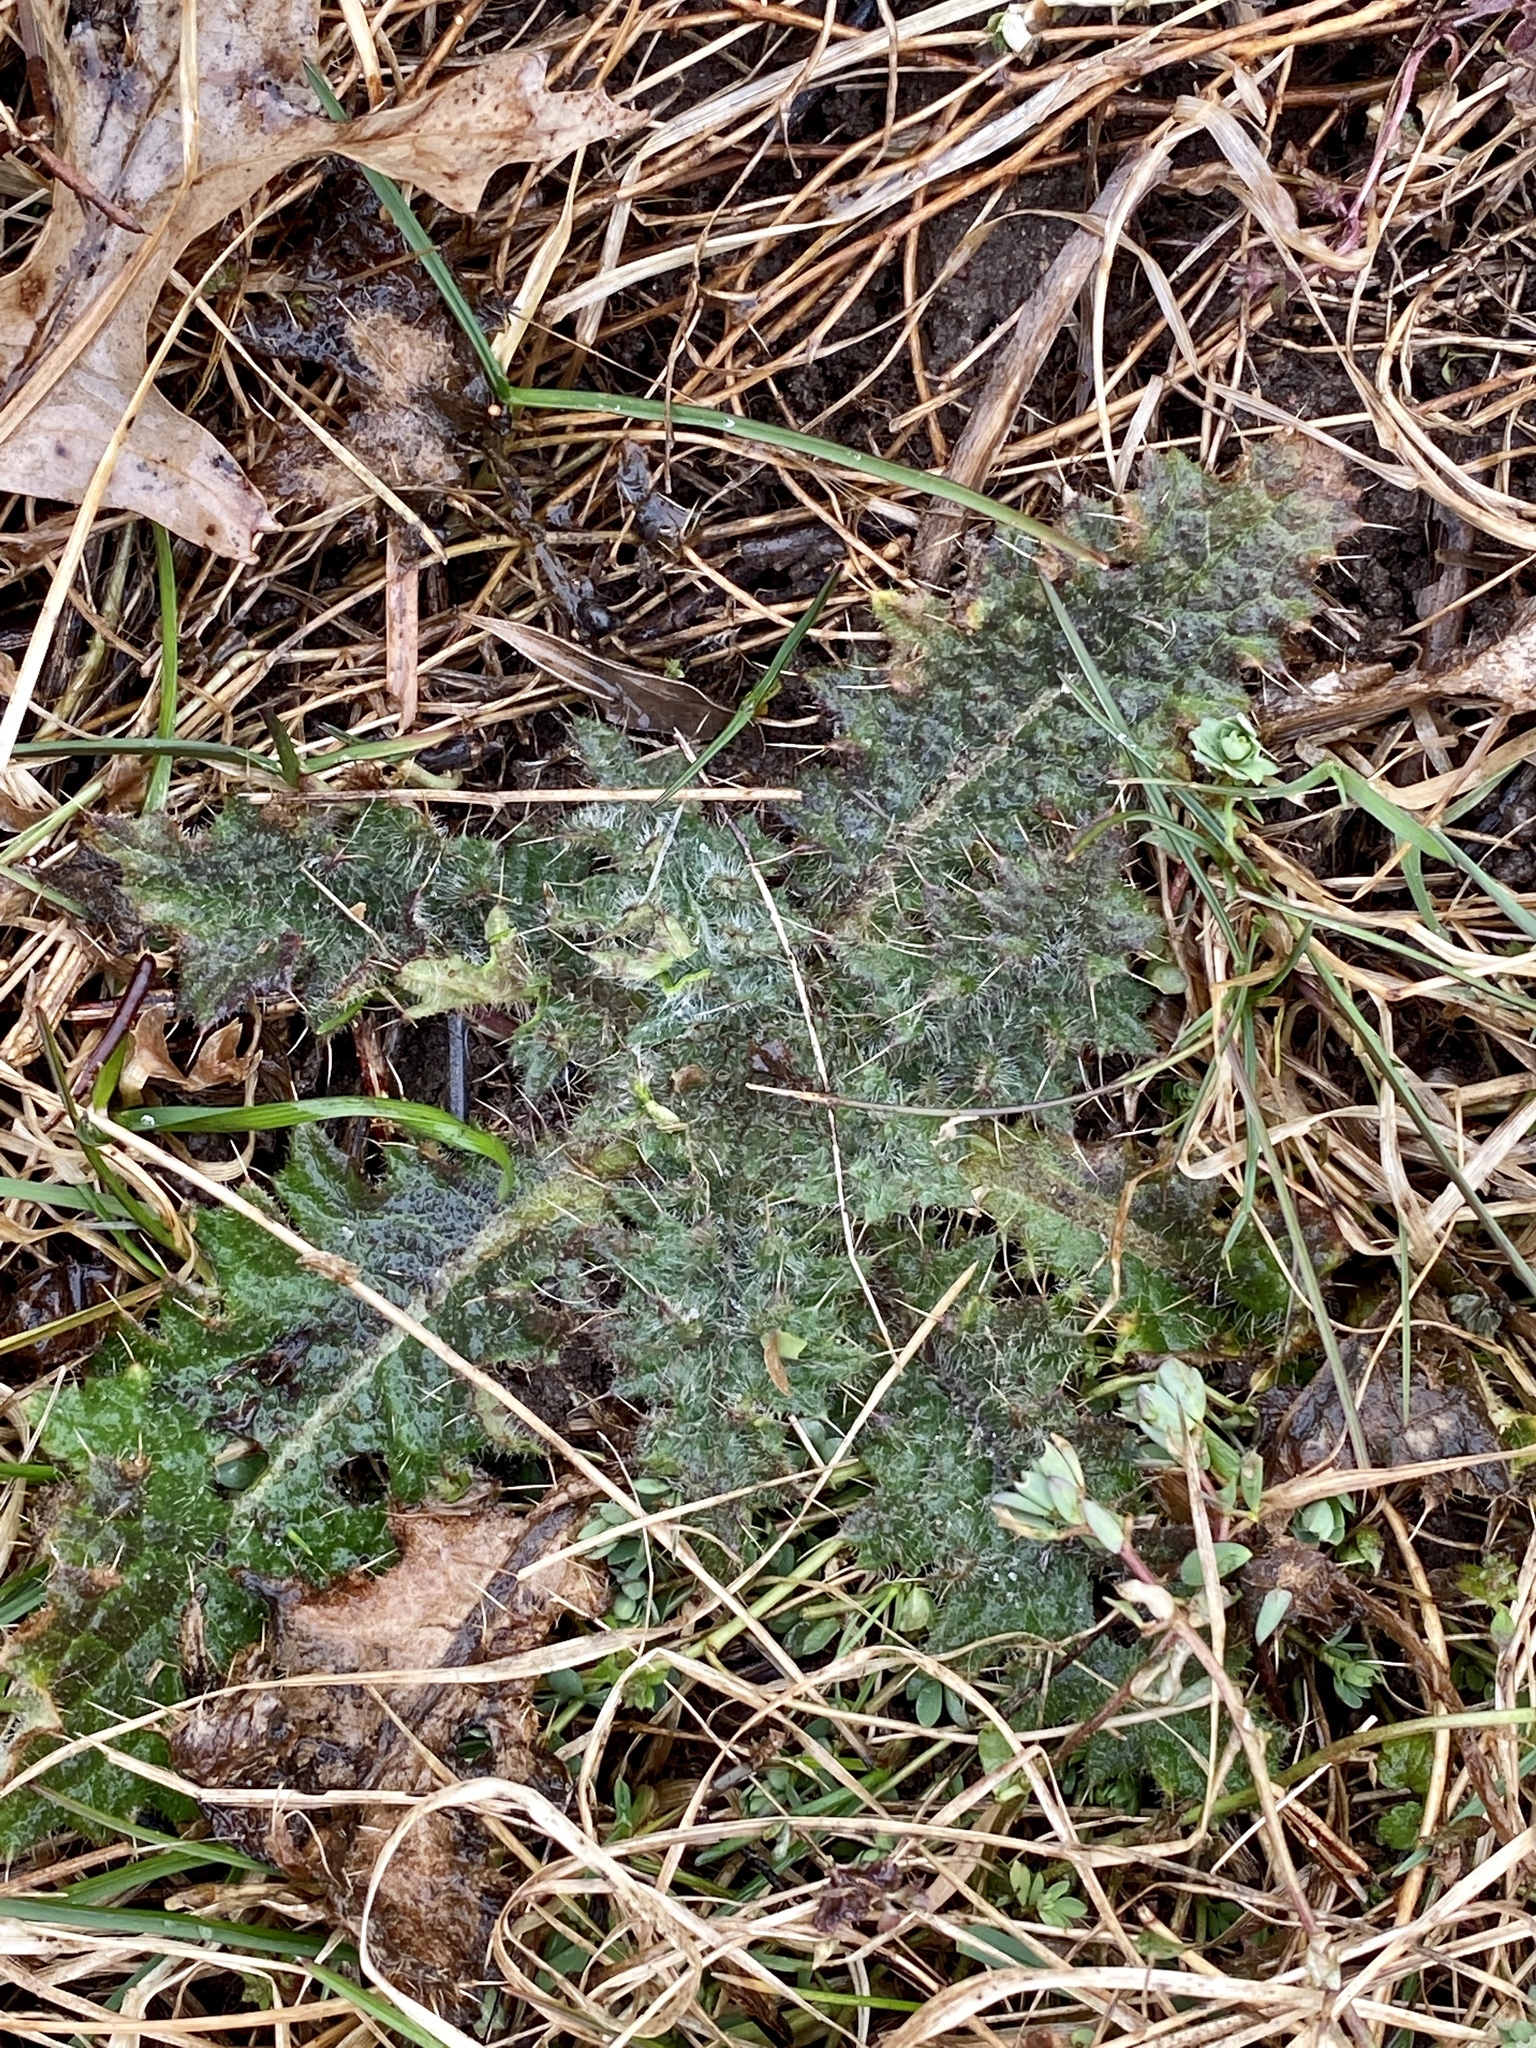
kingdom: Plantae
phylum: Tracheophyta
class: Magnoliopsida
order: Asterales
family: Asteraceae
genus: Cirsium
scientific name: Cirsium vulgare
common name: Bull thistle
